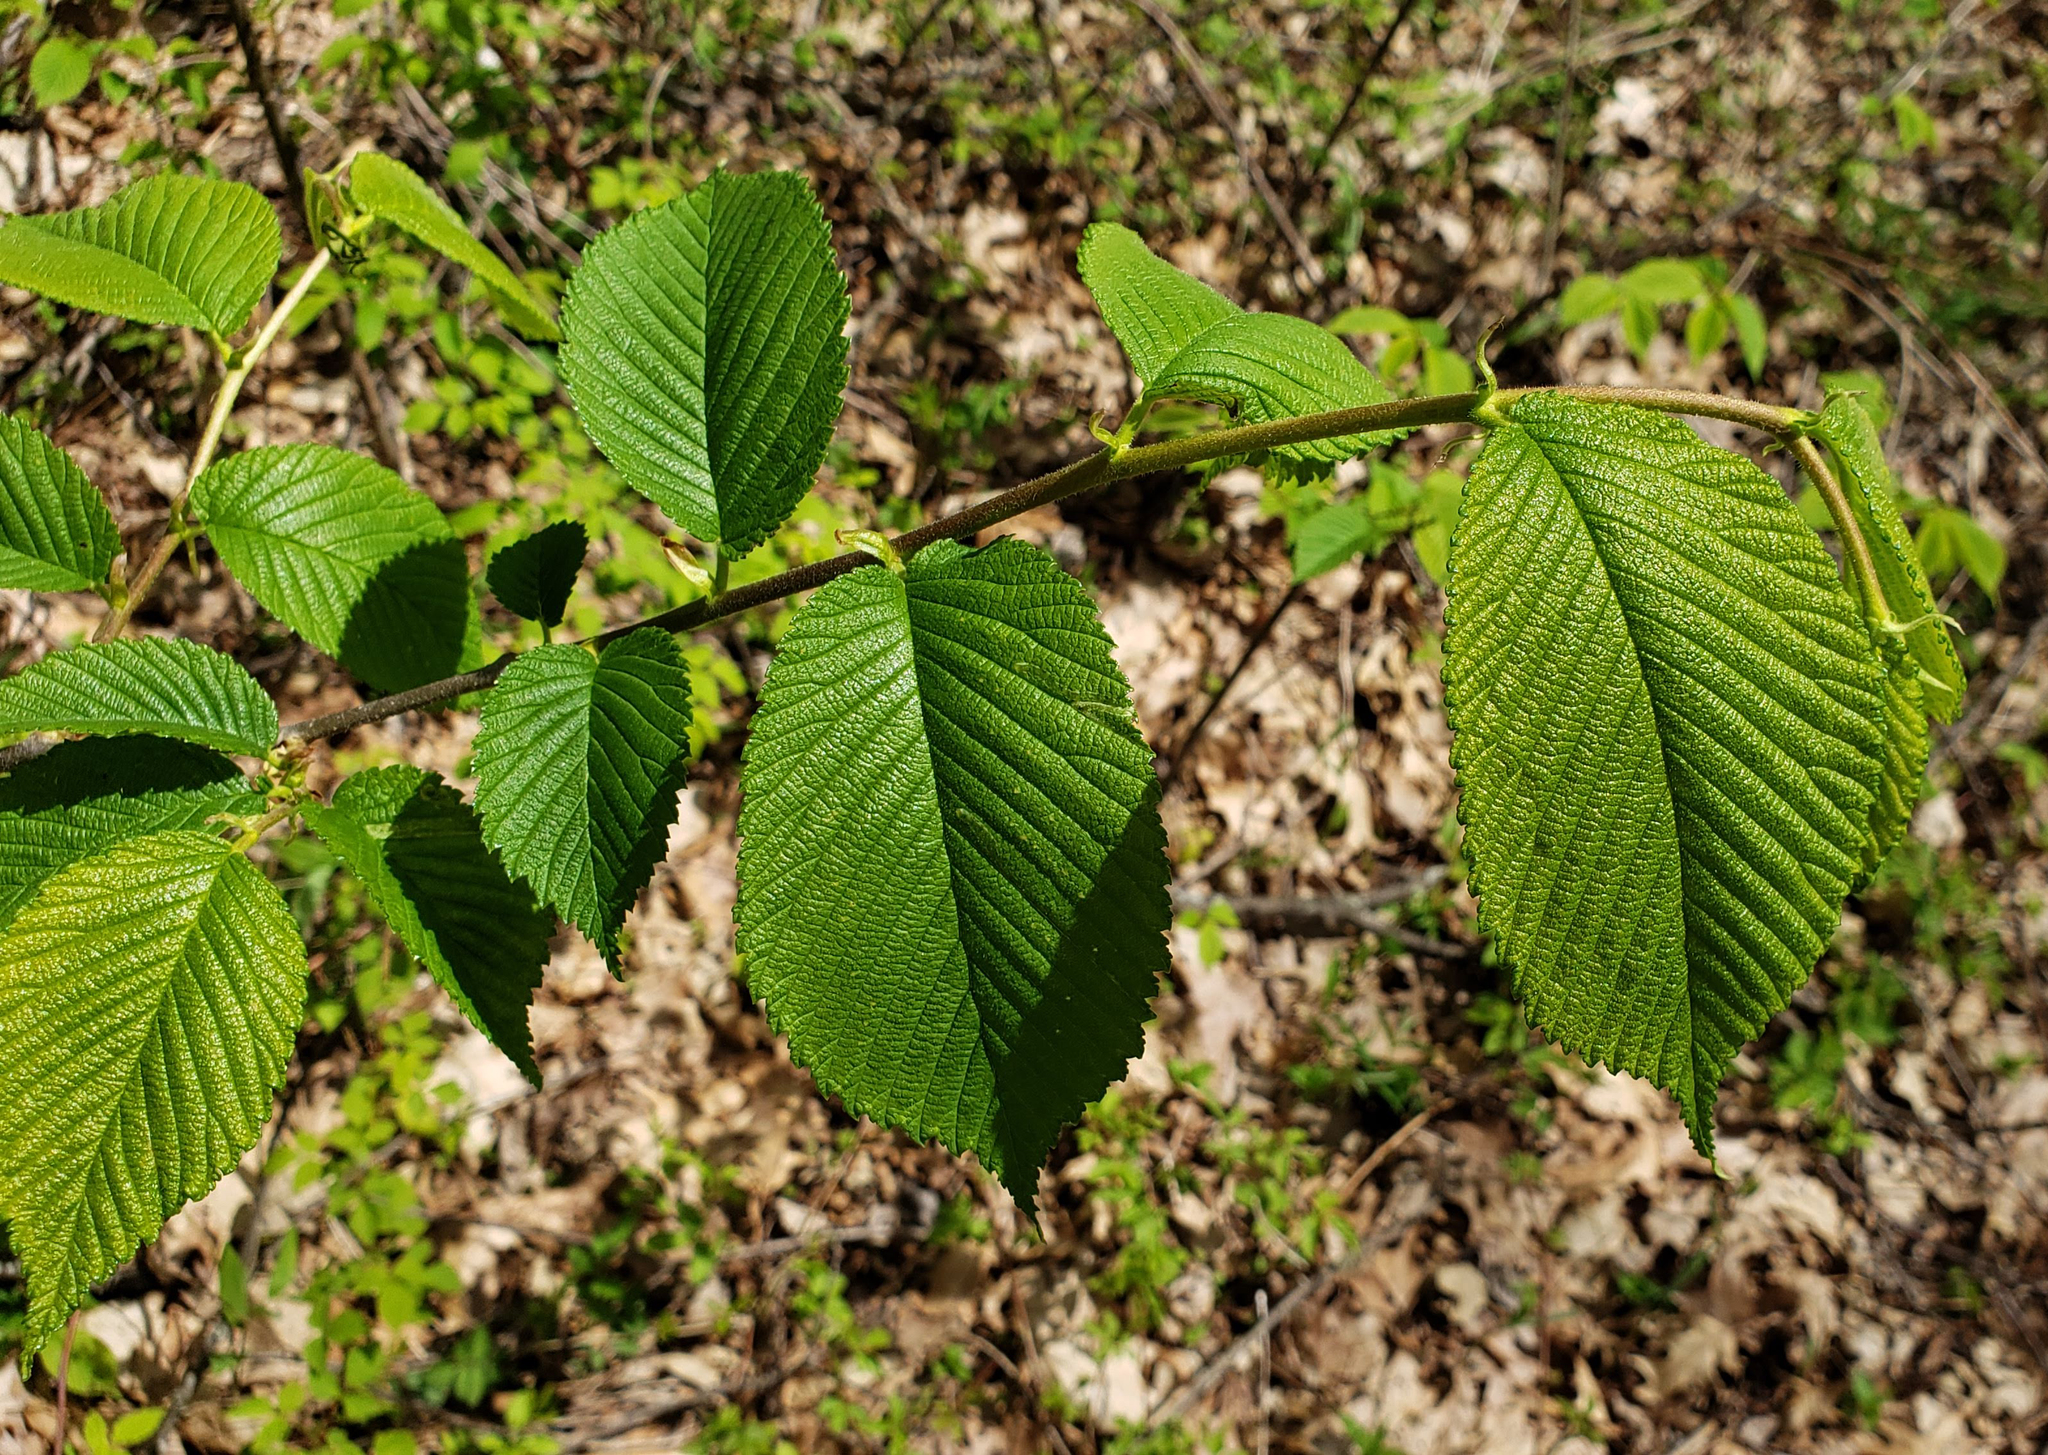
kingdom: Plantae
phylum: Tracheophyta
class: Magnoliopsida
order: Rosales
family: Ulmaceae
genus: Ulmus
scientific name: Ulmus rubra
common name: Slippery elm
